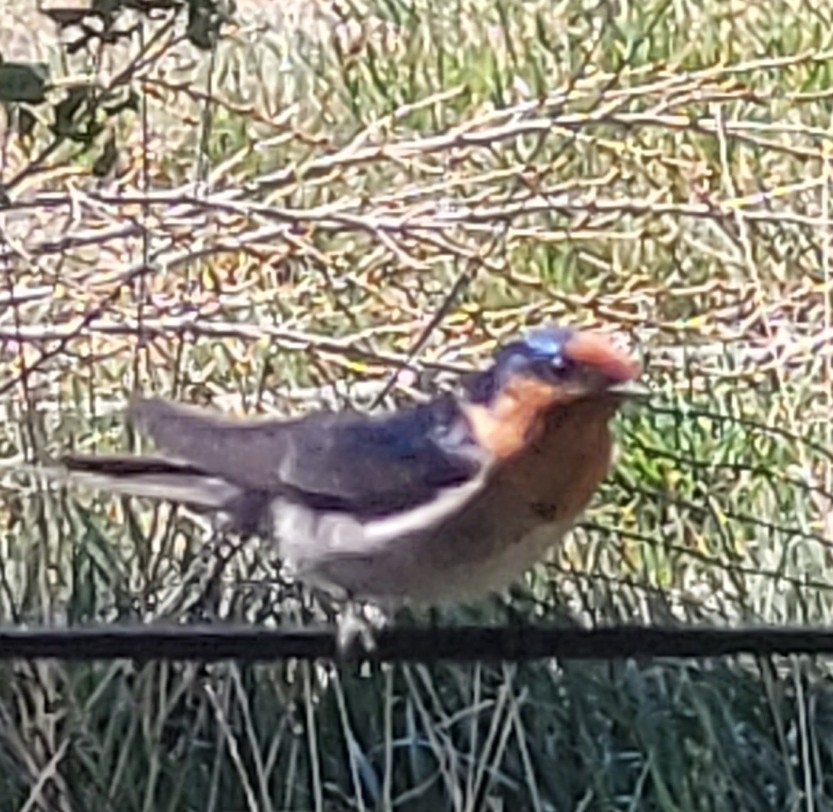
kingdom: Animalia
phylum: Chordata
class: Aves
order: Passeriformes
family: Hirundinidae
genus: Hirundo
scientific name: Hirundo neoxena
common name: Welcome swallow
